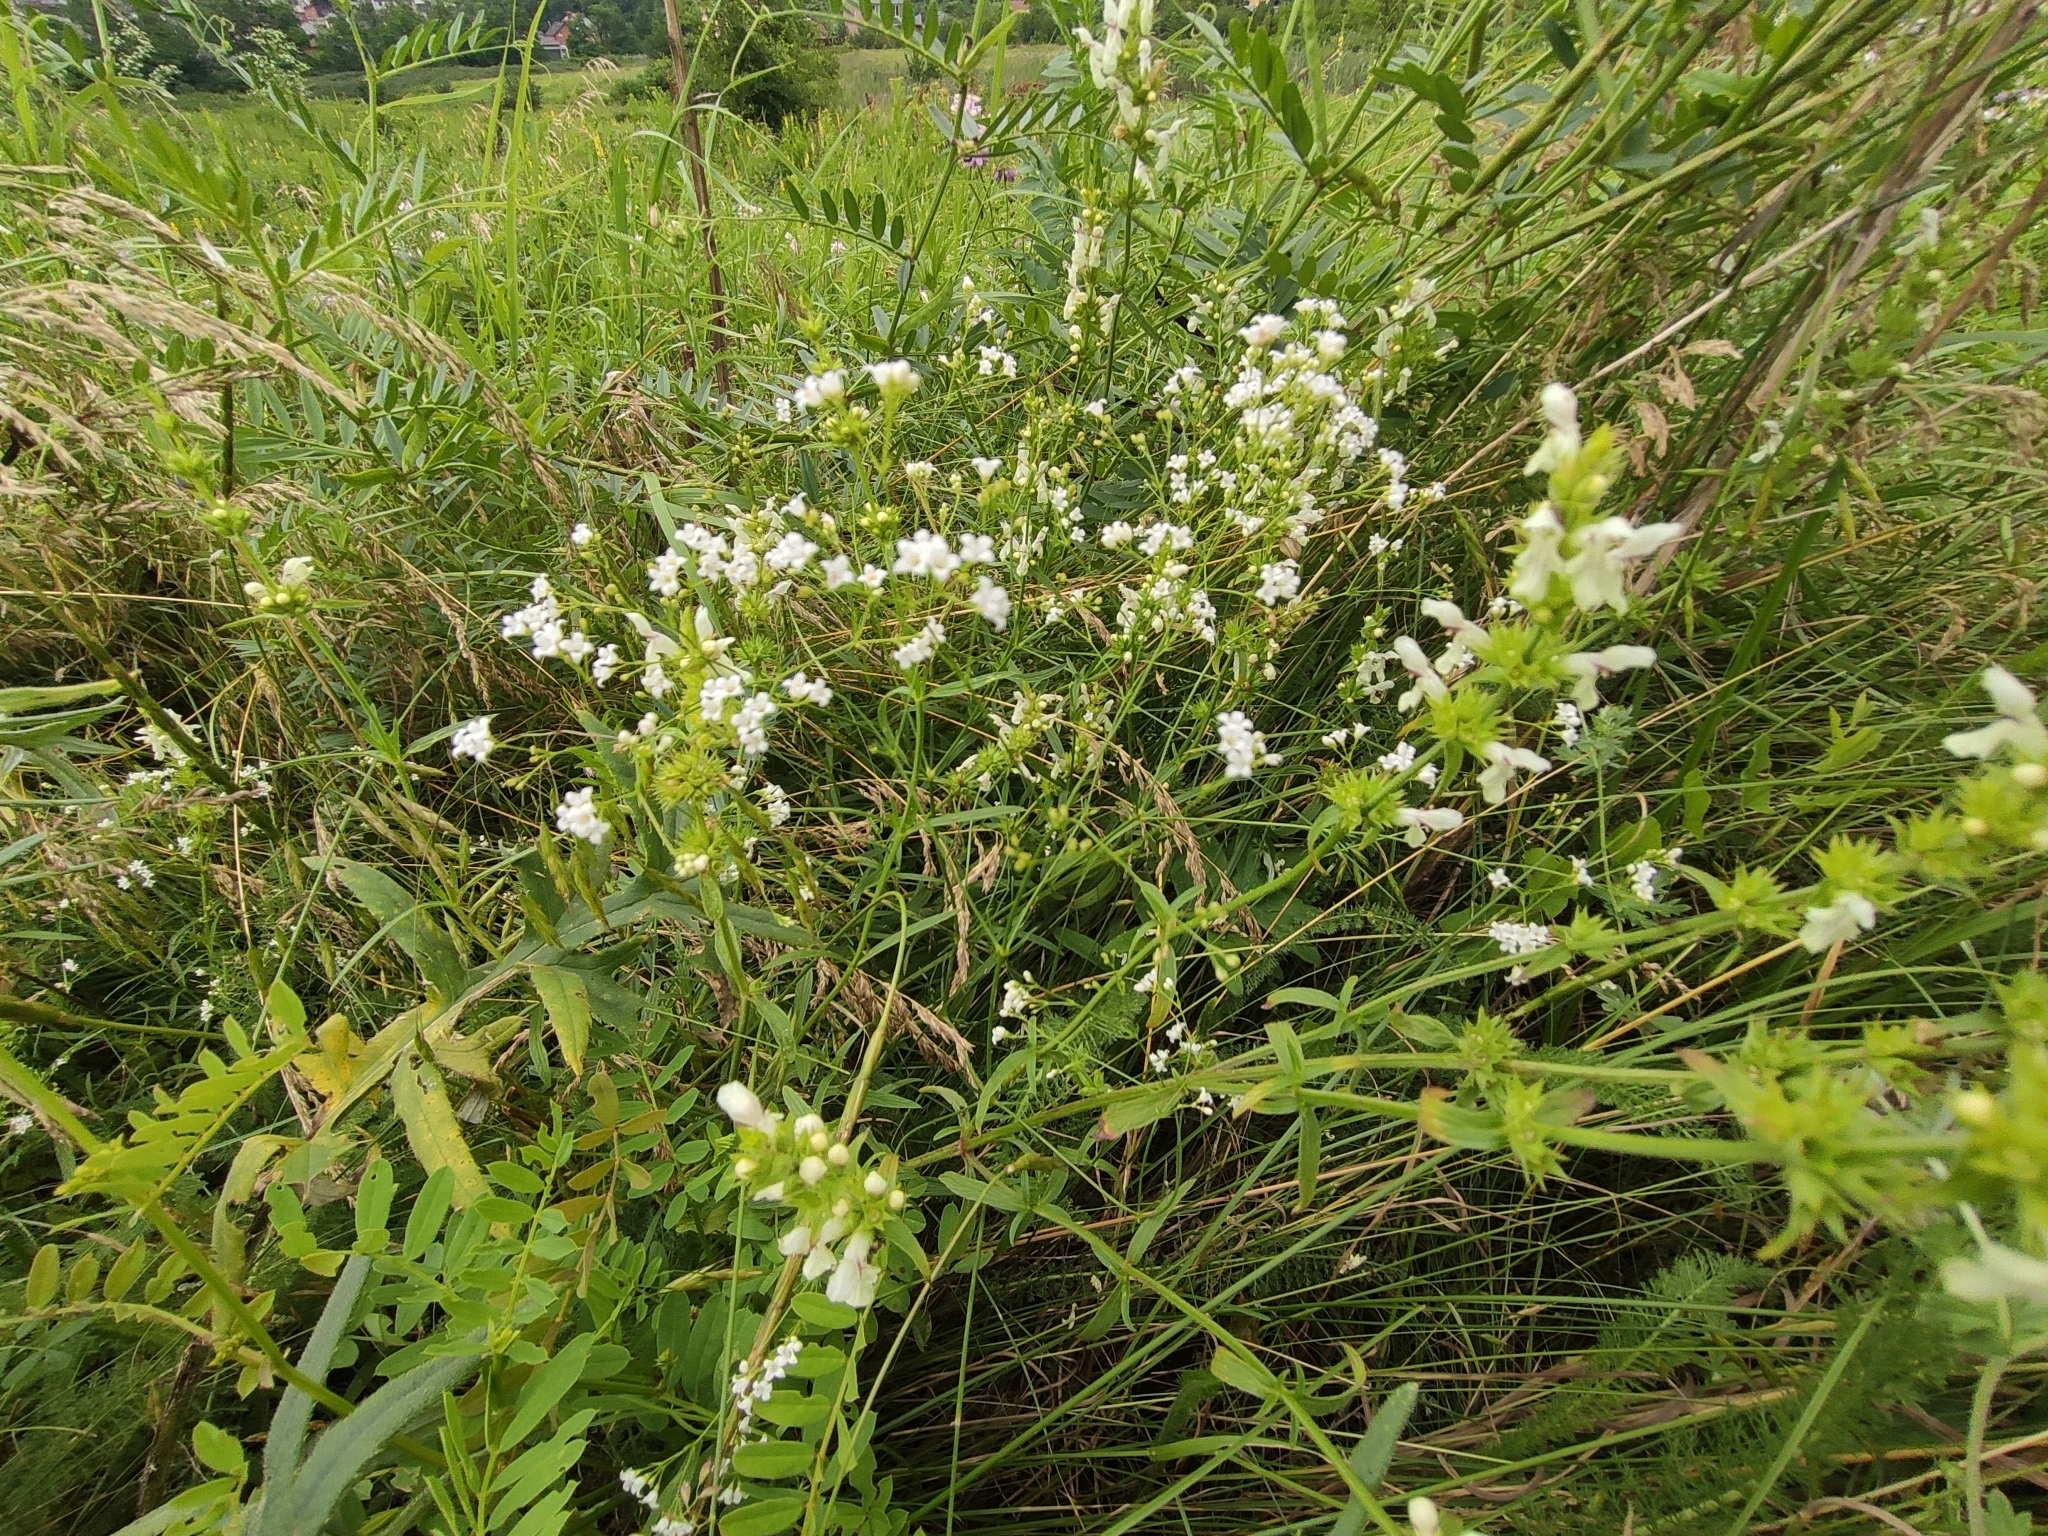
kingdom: Plantae
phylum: Tracheophyta
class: Magnoliopsida
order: Gentianales
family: Rubiaceae
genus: Galium
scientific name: Galium octonarium
